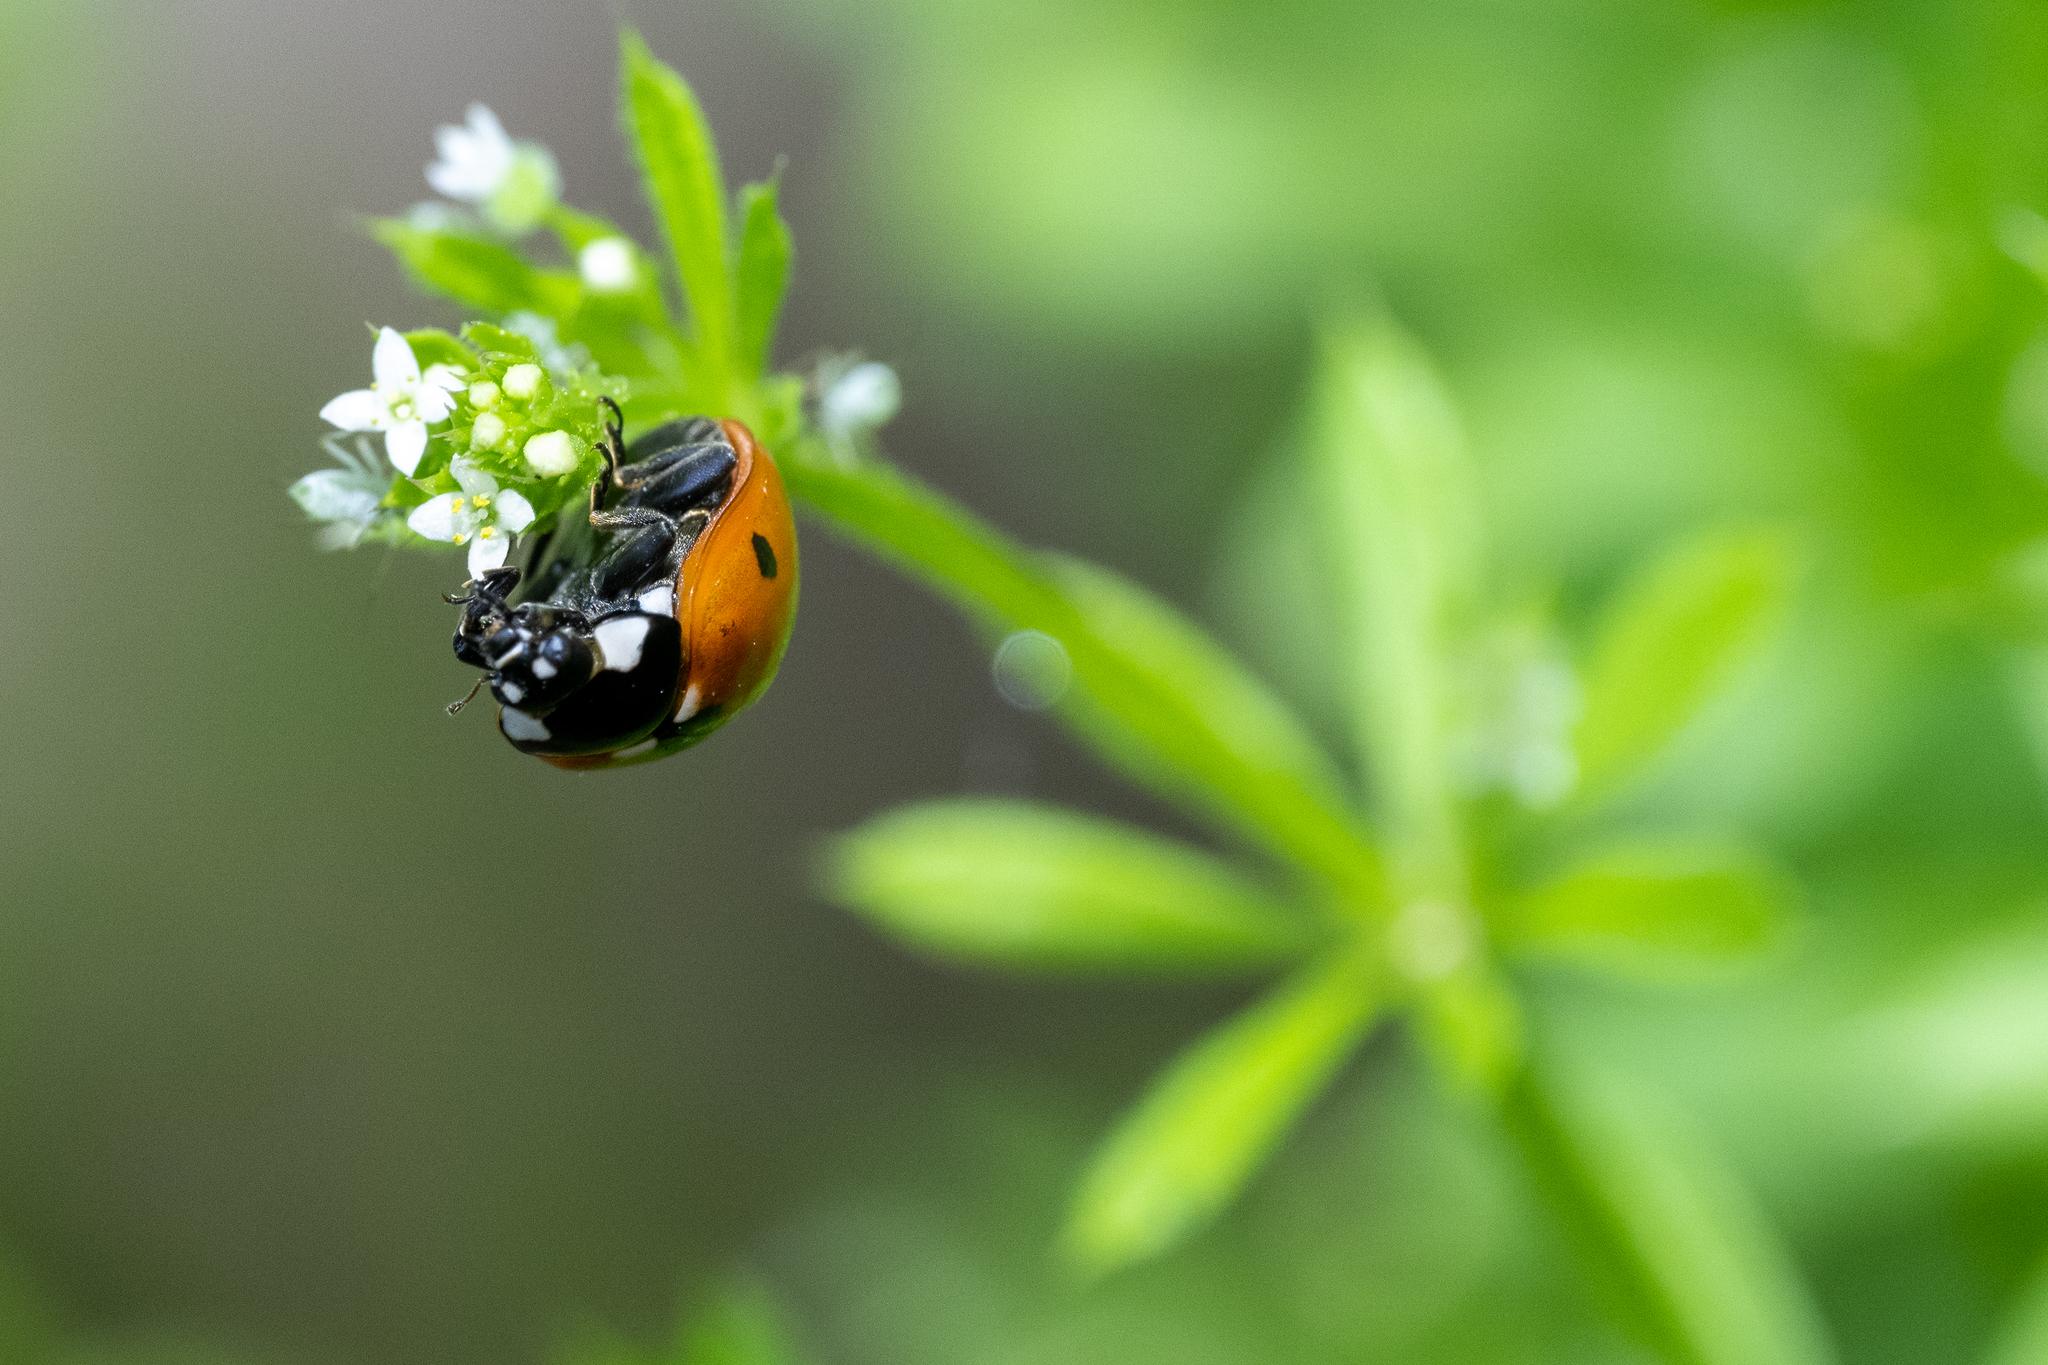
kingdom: Animalia
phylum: Arthropoda
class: Insecta
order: Coleoptera
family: Coccinellidae
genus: Coccinella
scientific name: Coccinella septempunctata
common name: Sevenspotted lady beetle
